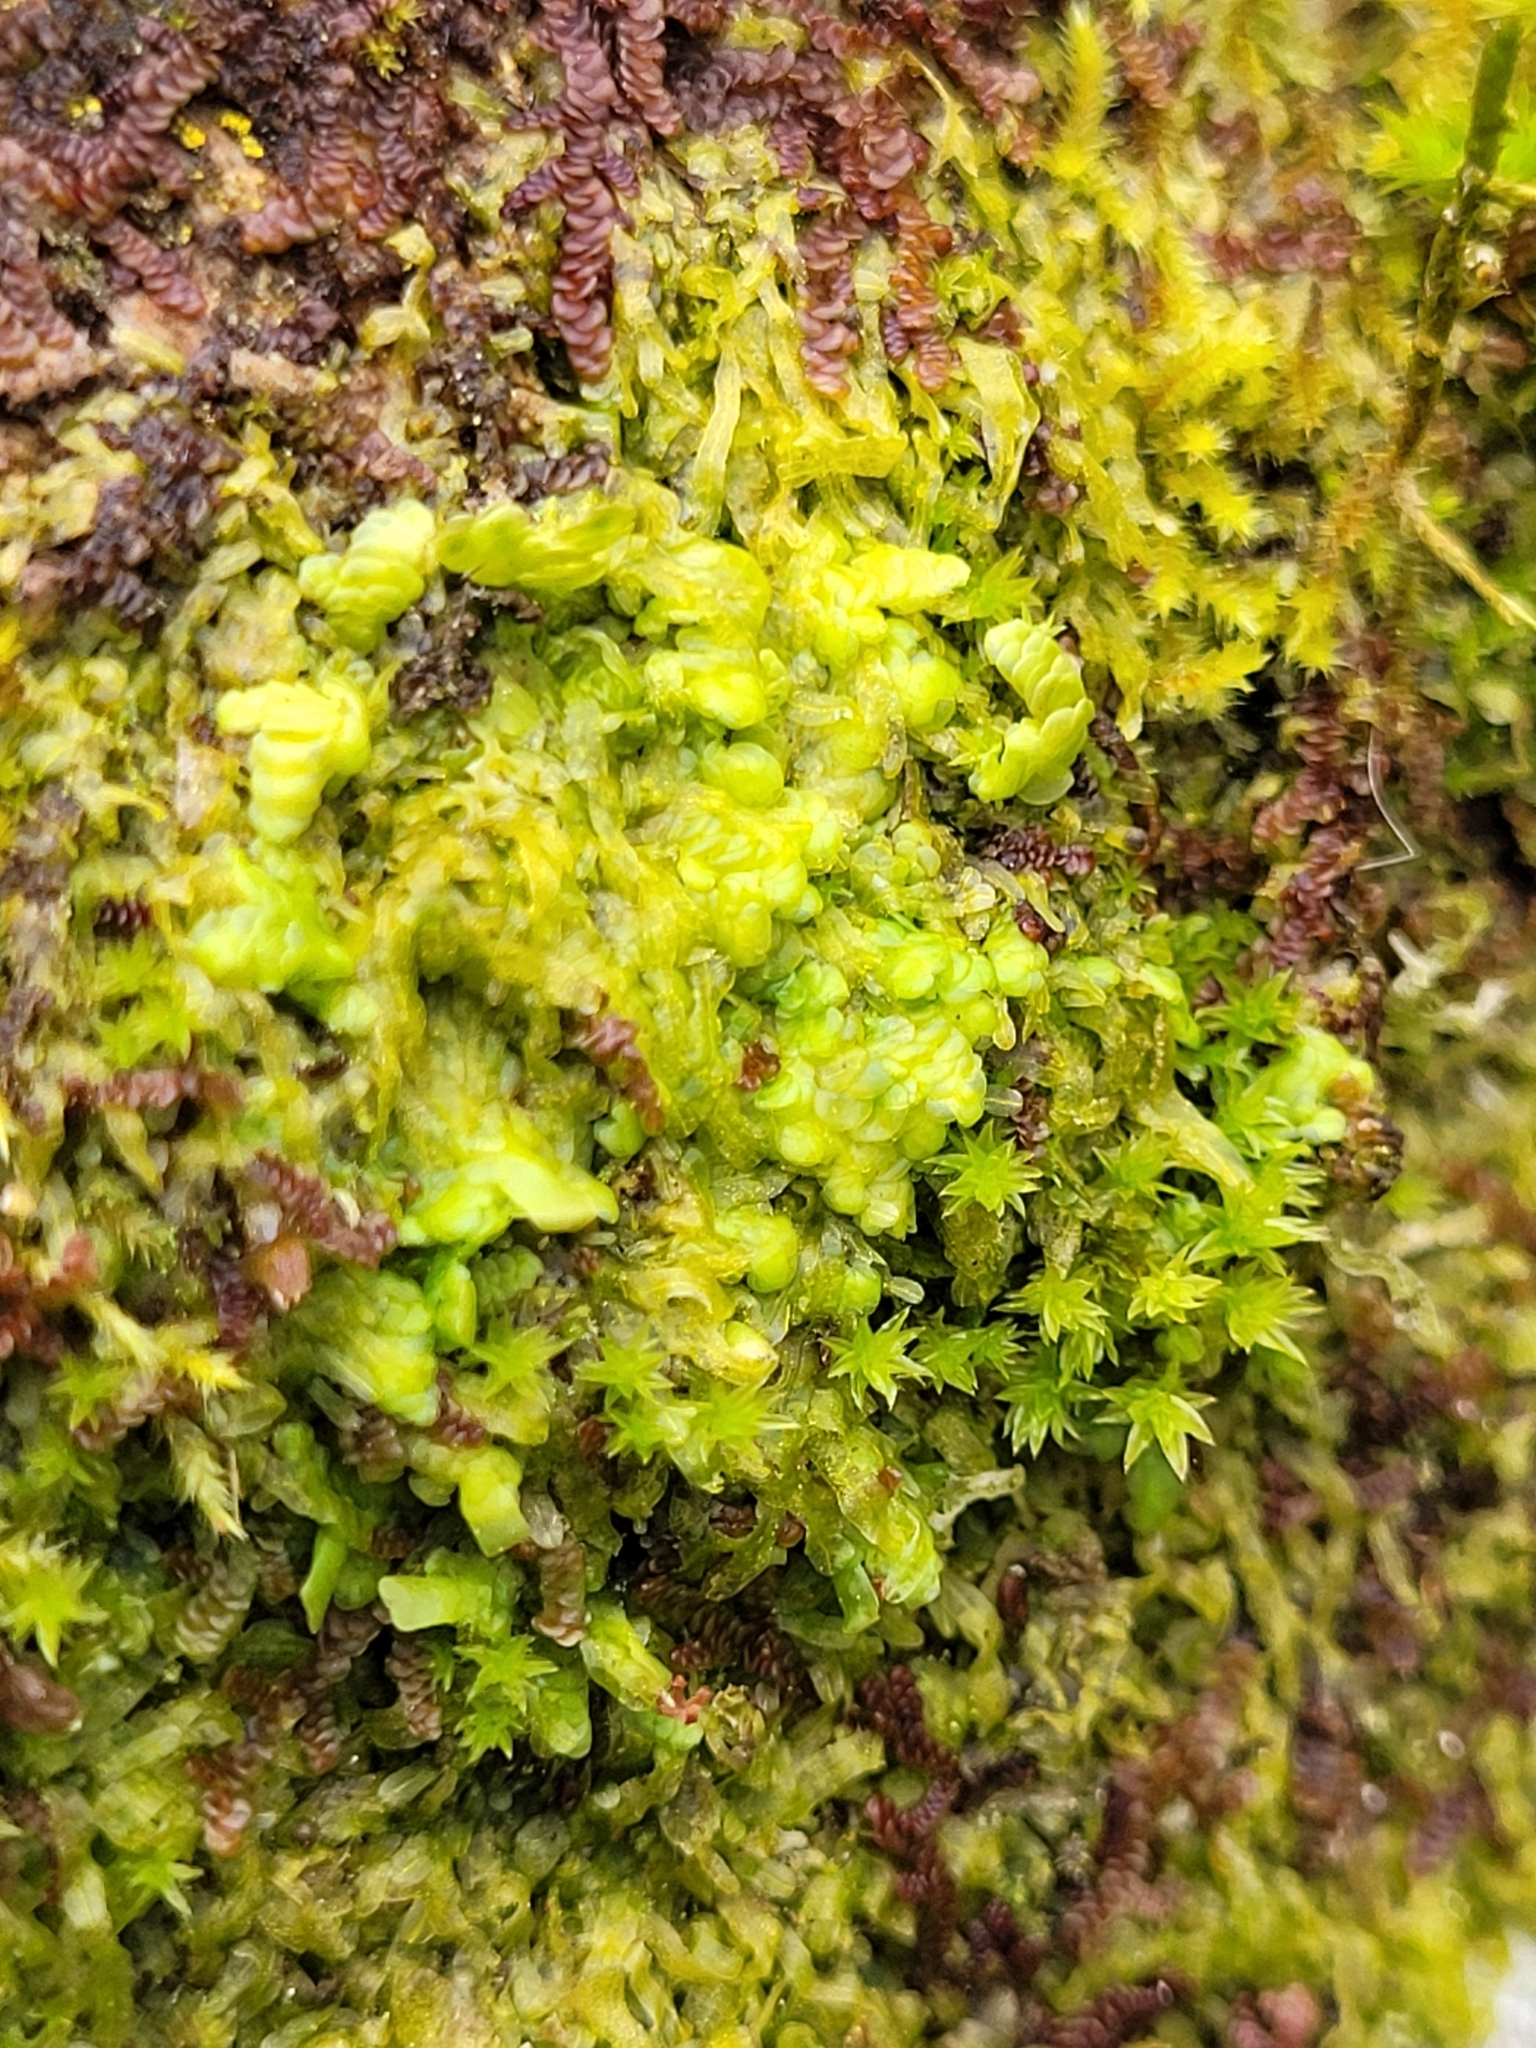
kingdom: Plantae
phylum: Marchantiophyta
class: Jungermanniopsida
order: Porellales
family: Radulaceae
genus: Radula
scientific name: Radula complanata
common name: Flat-leaved scalewort
